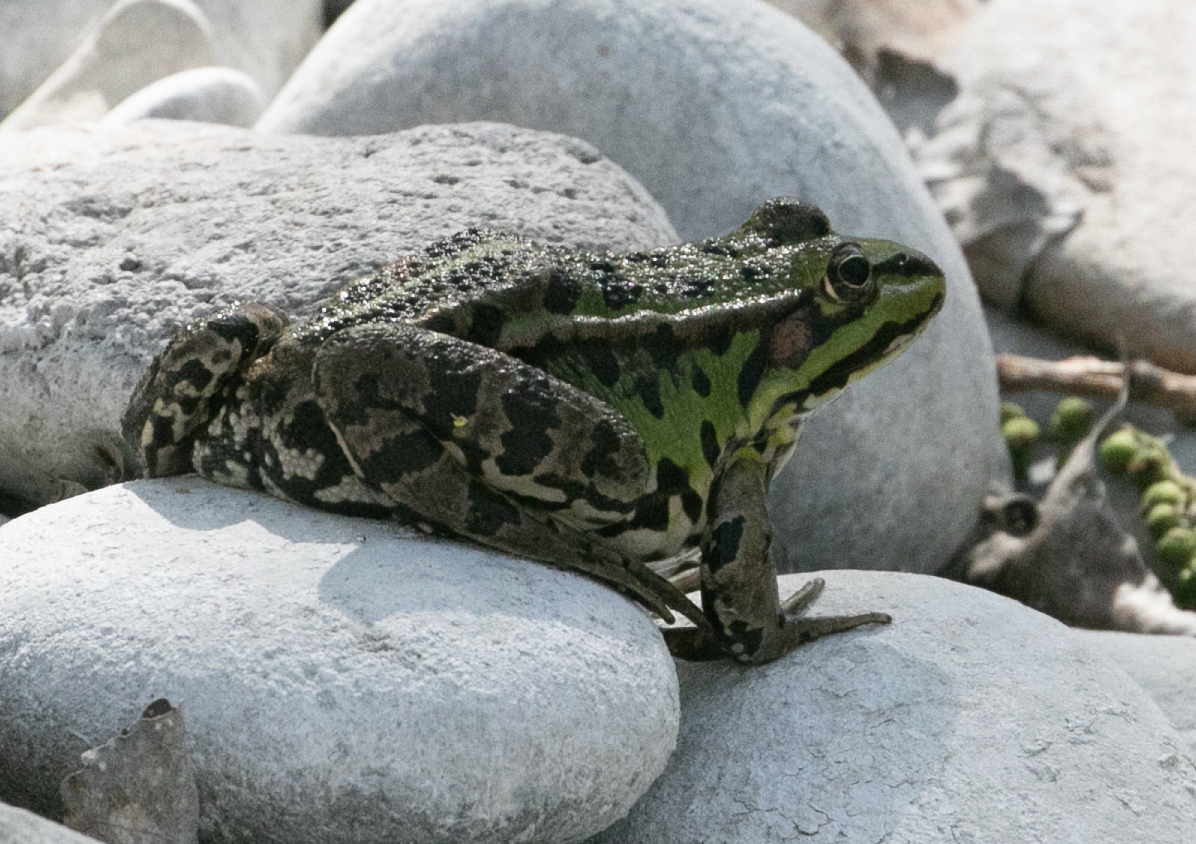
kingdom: Animalia
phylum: Chordata
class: Amphibia
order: Anura
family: Ranidae
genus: Pelophylax
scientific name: Pelophylax
